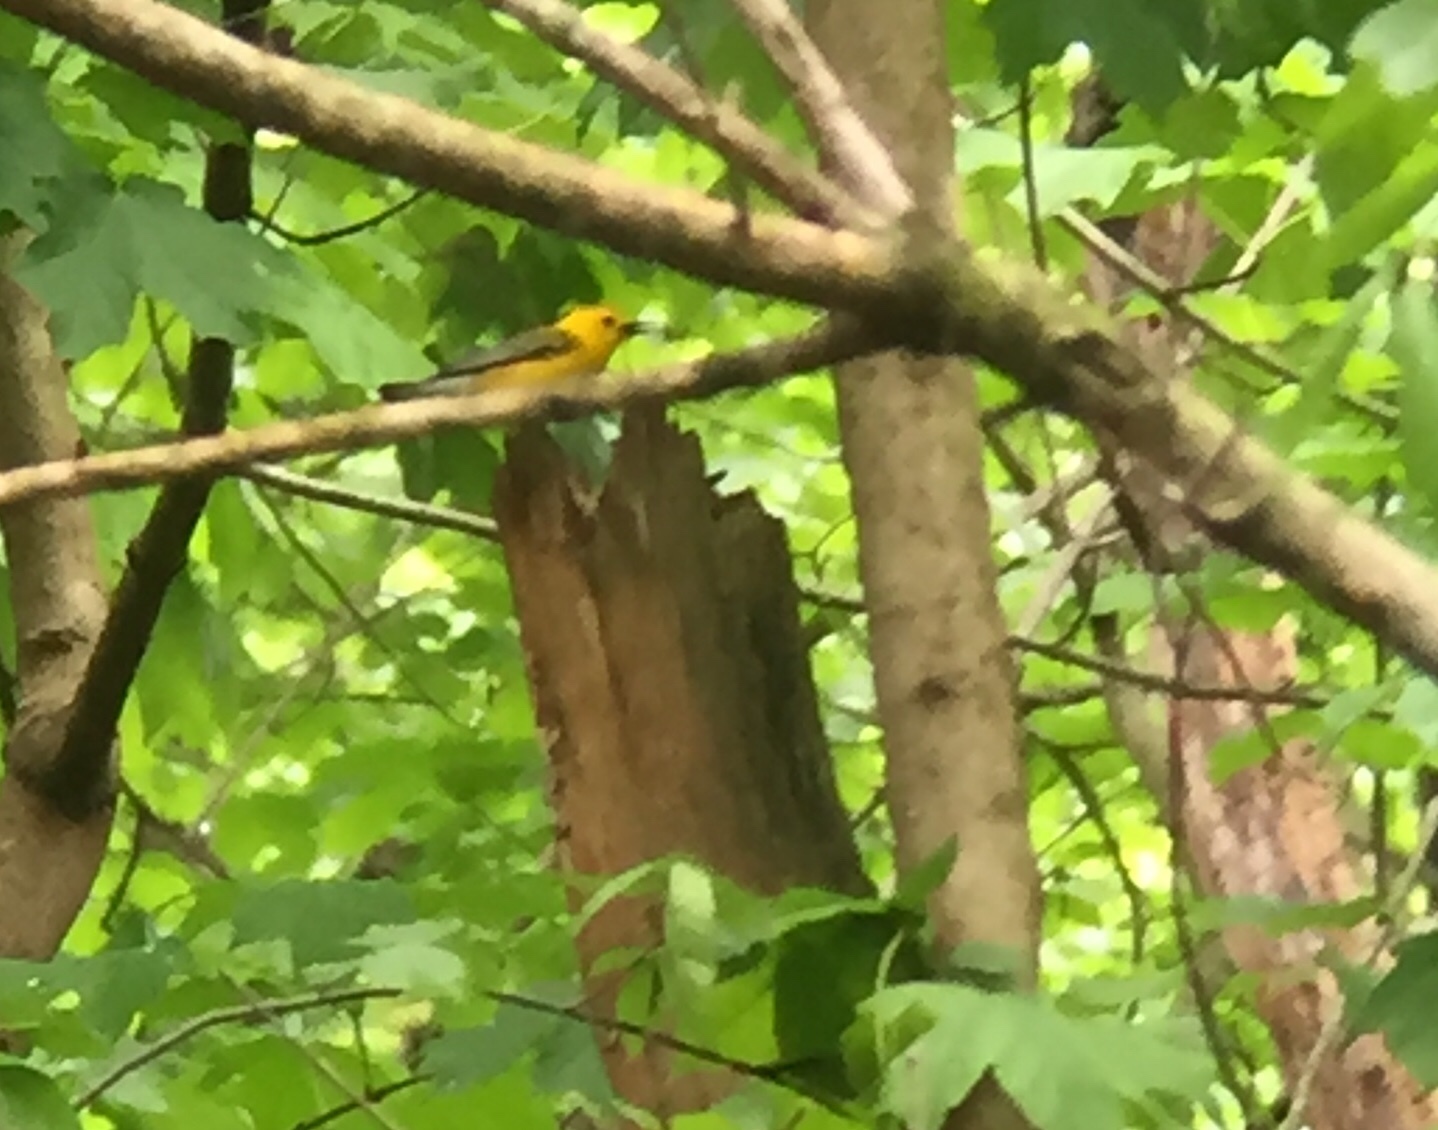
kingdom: Animalia
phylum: Chordata
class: Aves
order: Passeriformes
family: Parulidae
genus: Protonotaria
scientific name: Protonotaria citrea
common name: Prothonotary warbler
